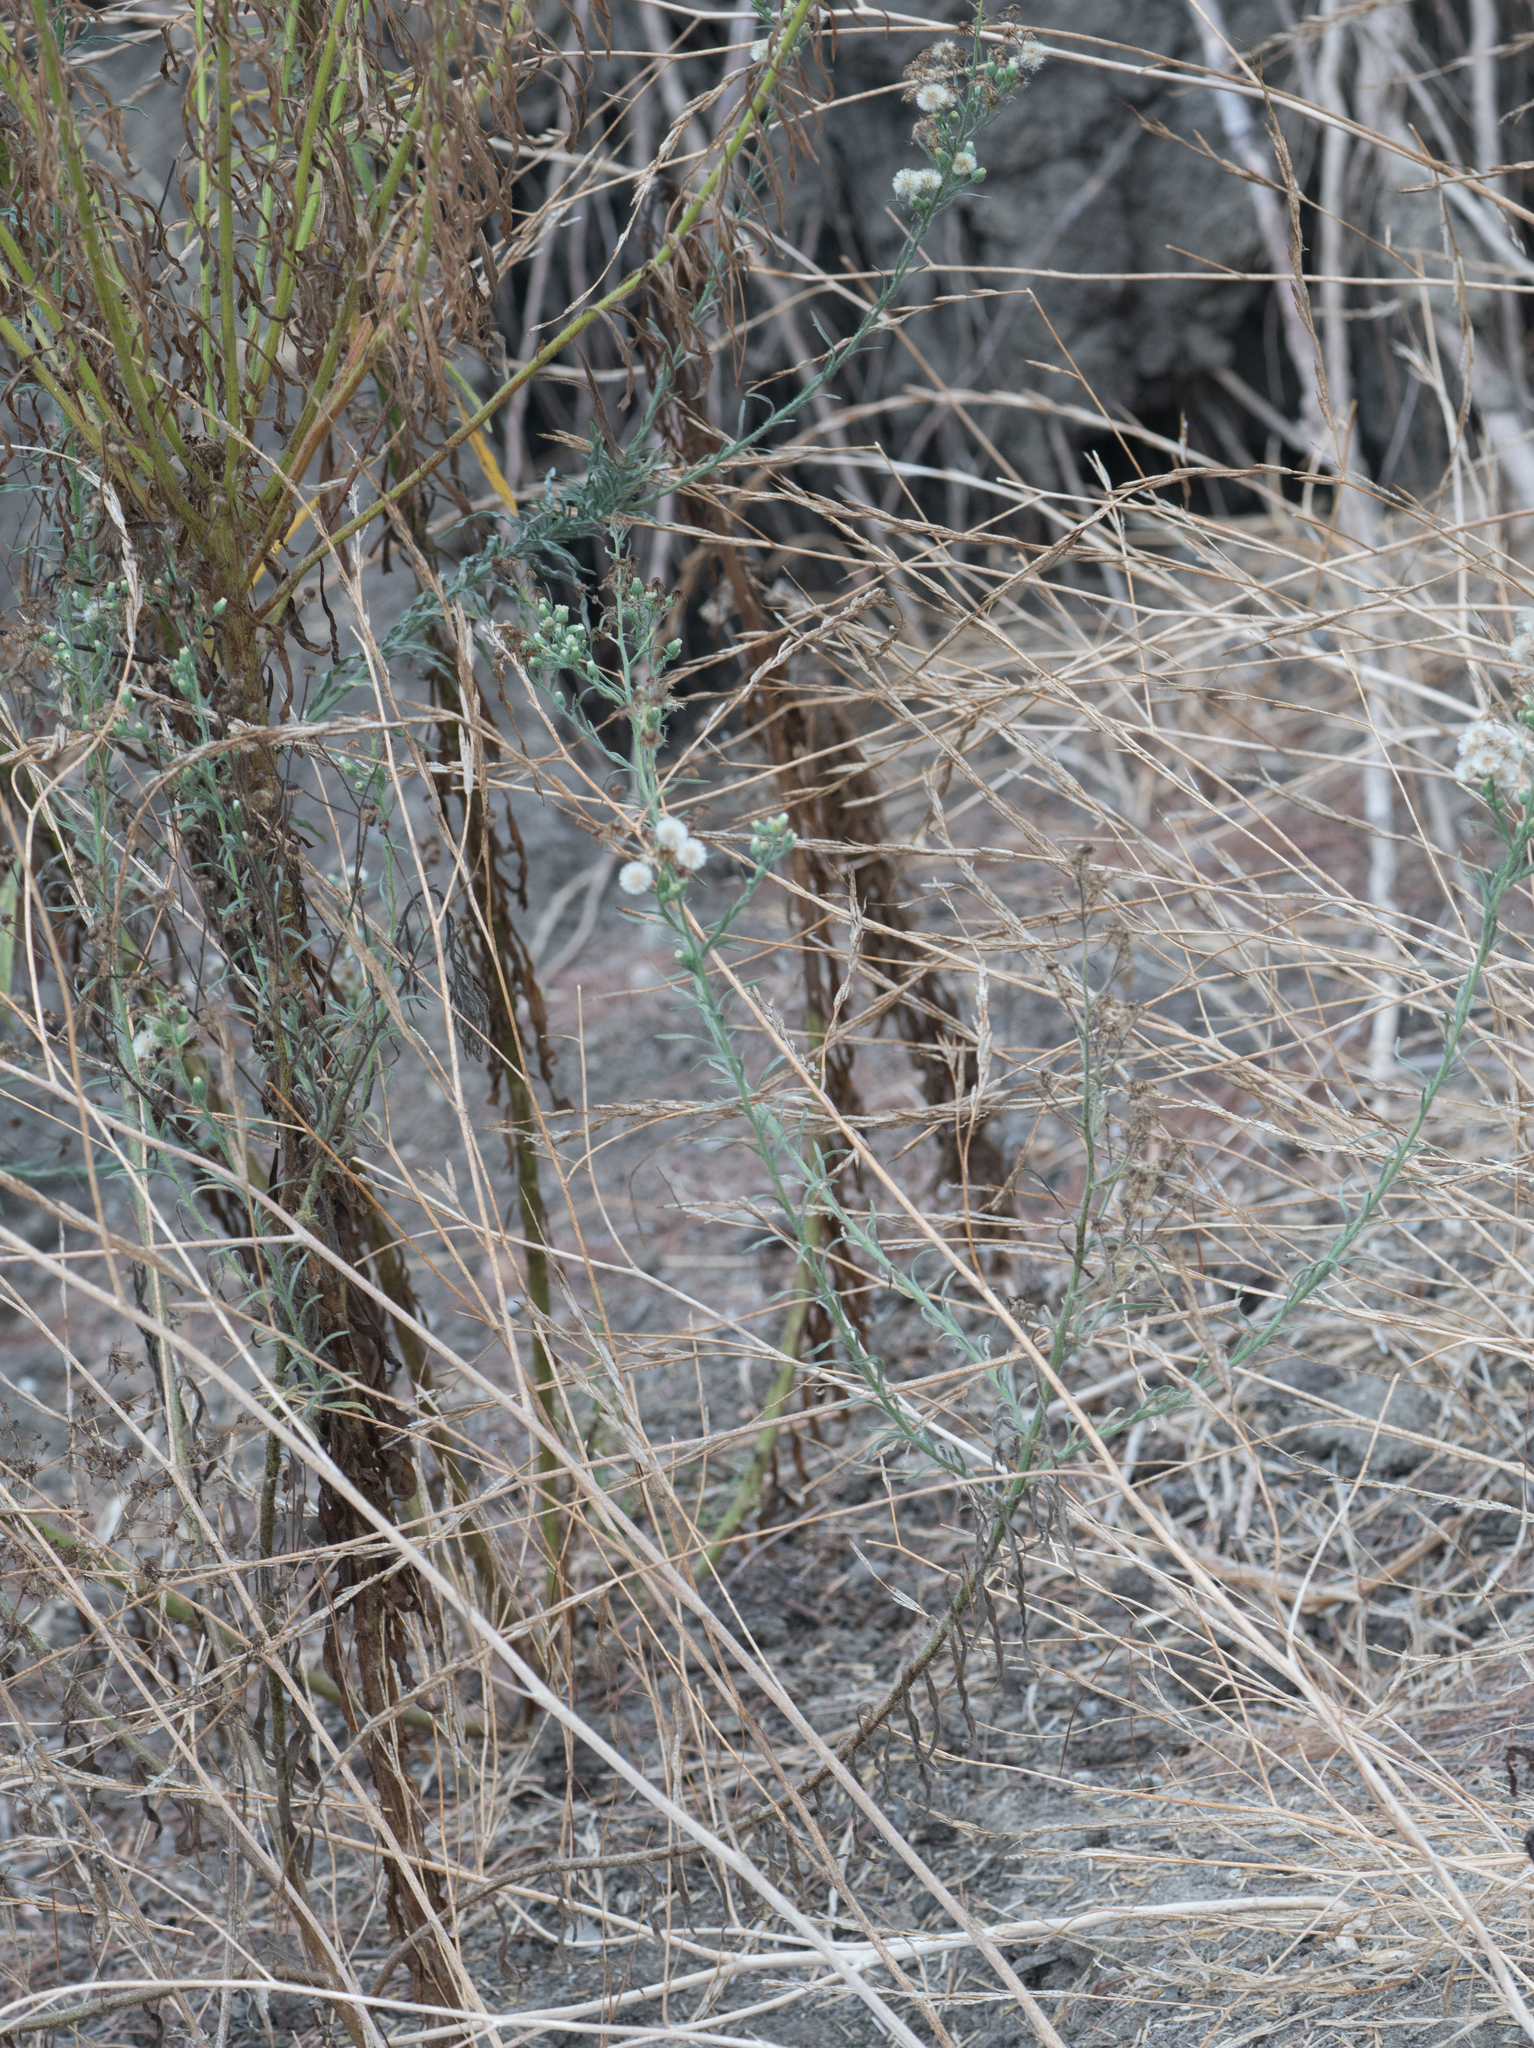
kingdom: Plantae
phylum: Tracheophyta
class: Magnoliopsida
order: Asterales
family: Asteraceae
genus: Erigeron
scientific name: Erigeron bonariensis
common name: Argentine fleabane
